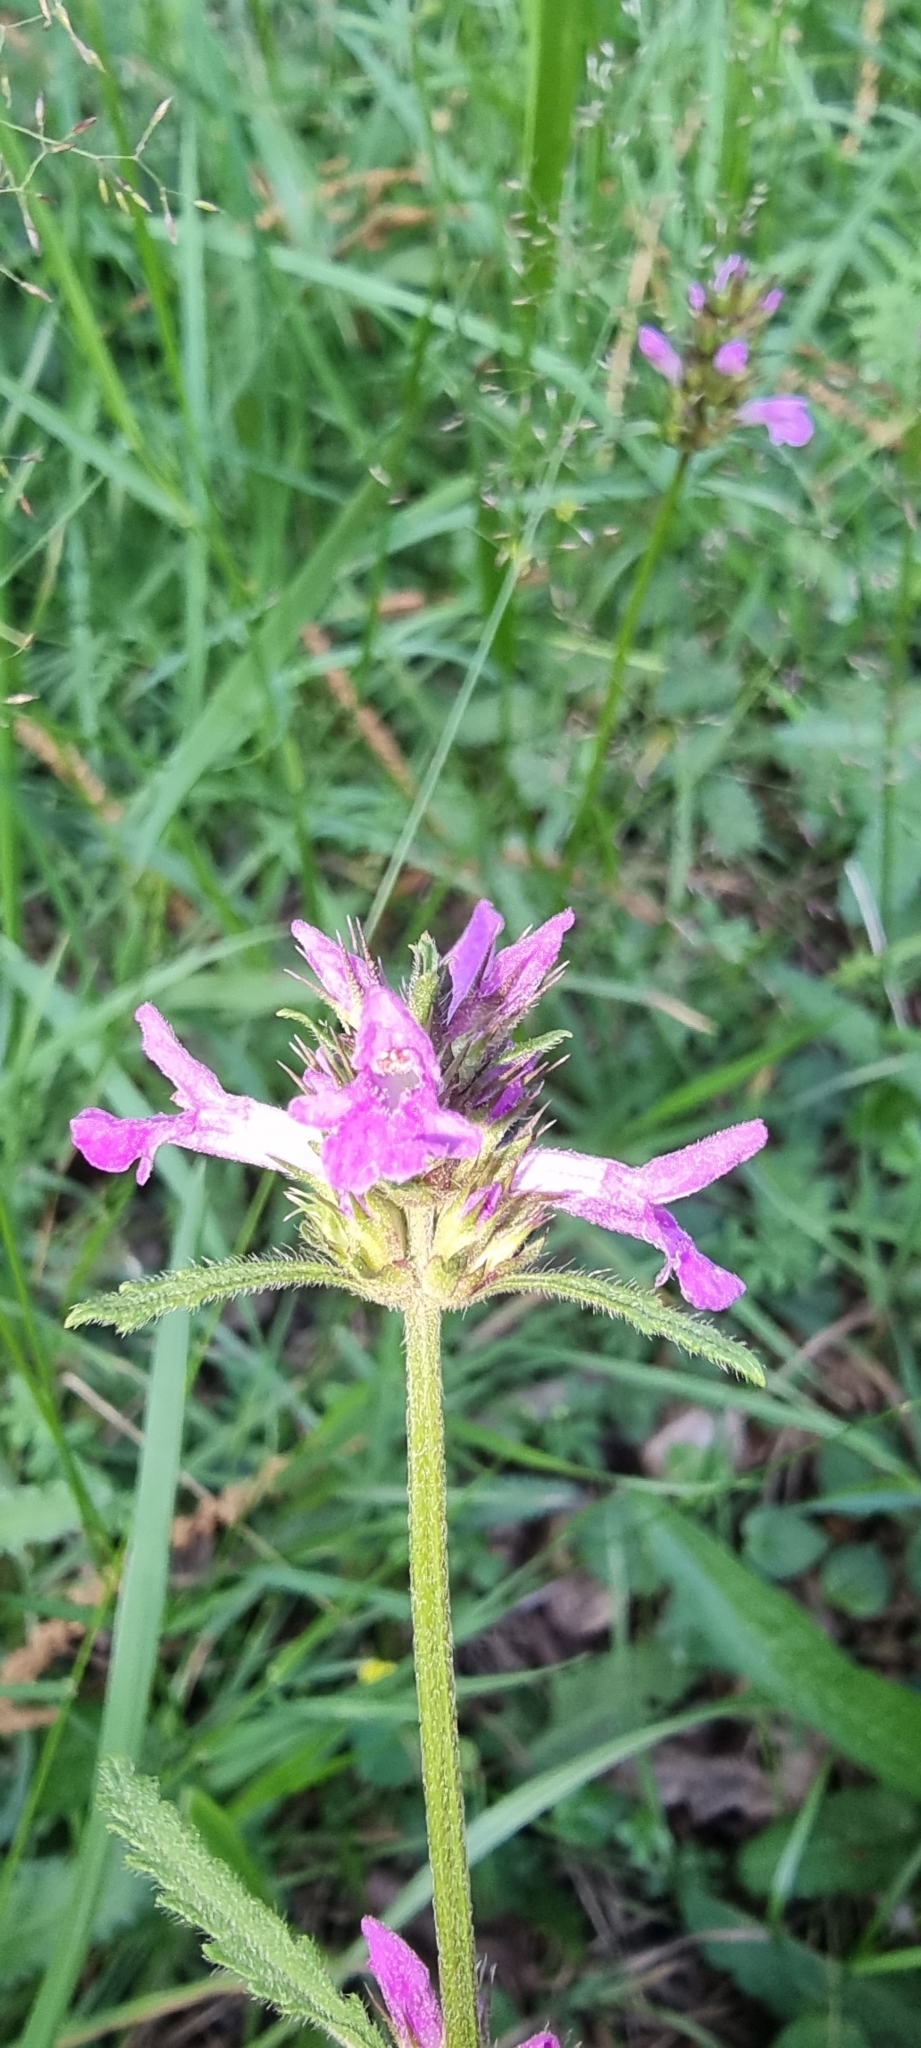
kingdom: Plantae
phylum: Tracheophyta
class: Magnoliopsida
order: Lamiales
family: Lamiaceae
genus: Betonica
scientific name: Betonica officinalis
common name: Bishop's-wort
